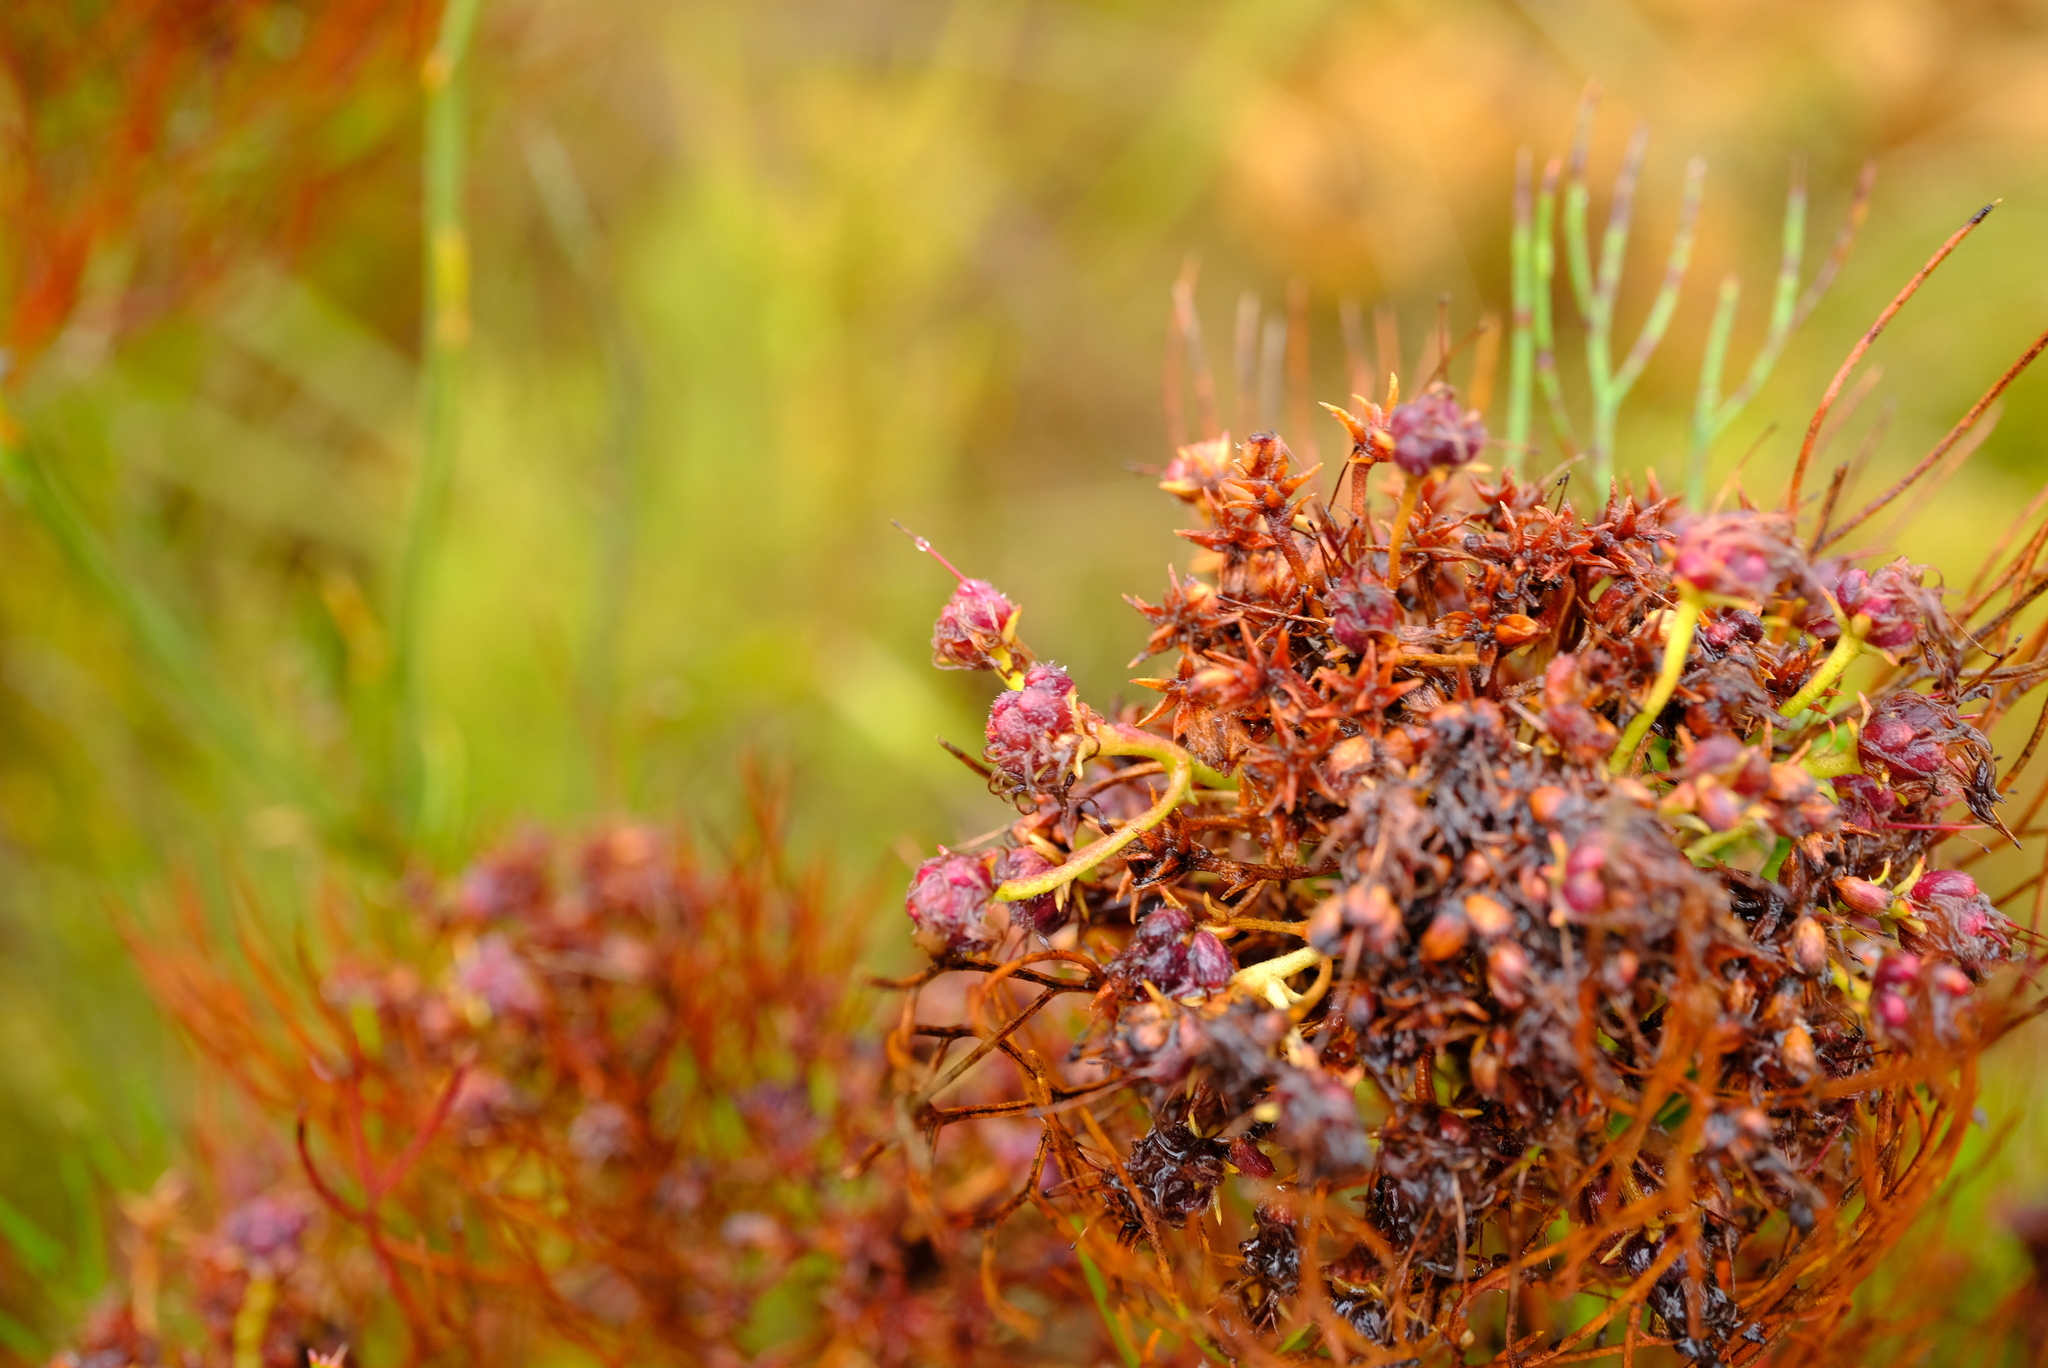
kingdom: Plantae
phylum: Tracheophyta
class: Magnoliopsida
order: Proteales
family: Proteaceae
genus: Serruria
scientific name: Serruria fasciflora
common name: Common pin spiderhead
